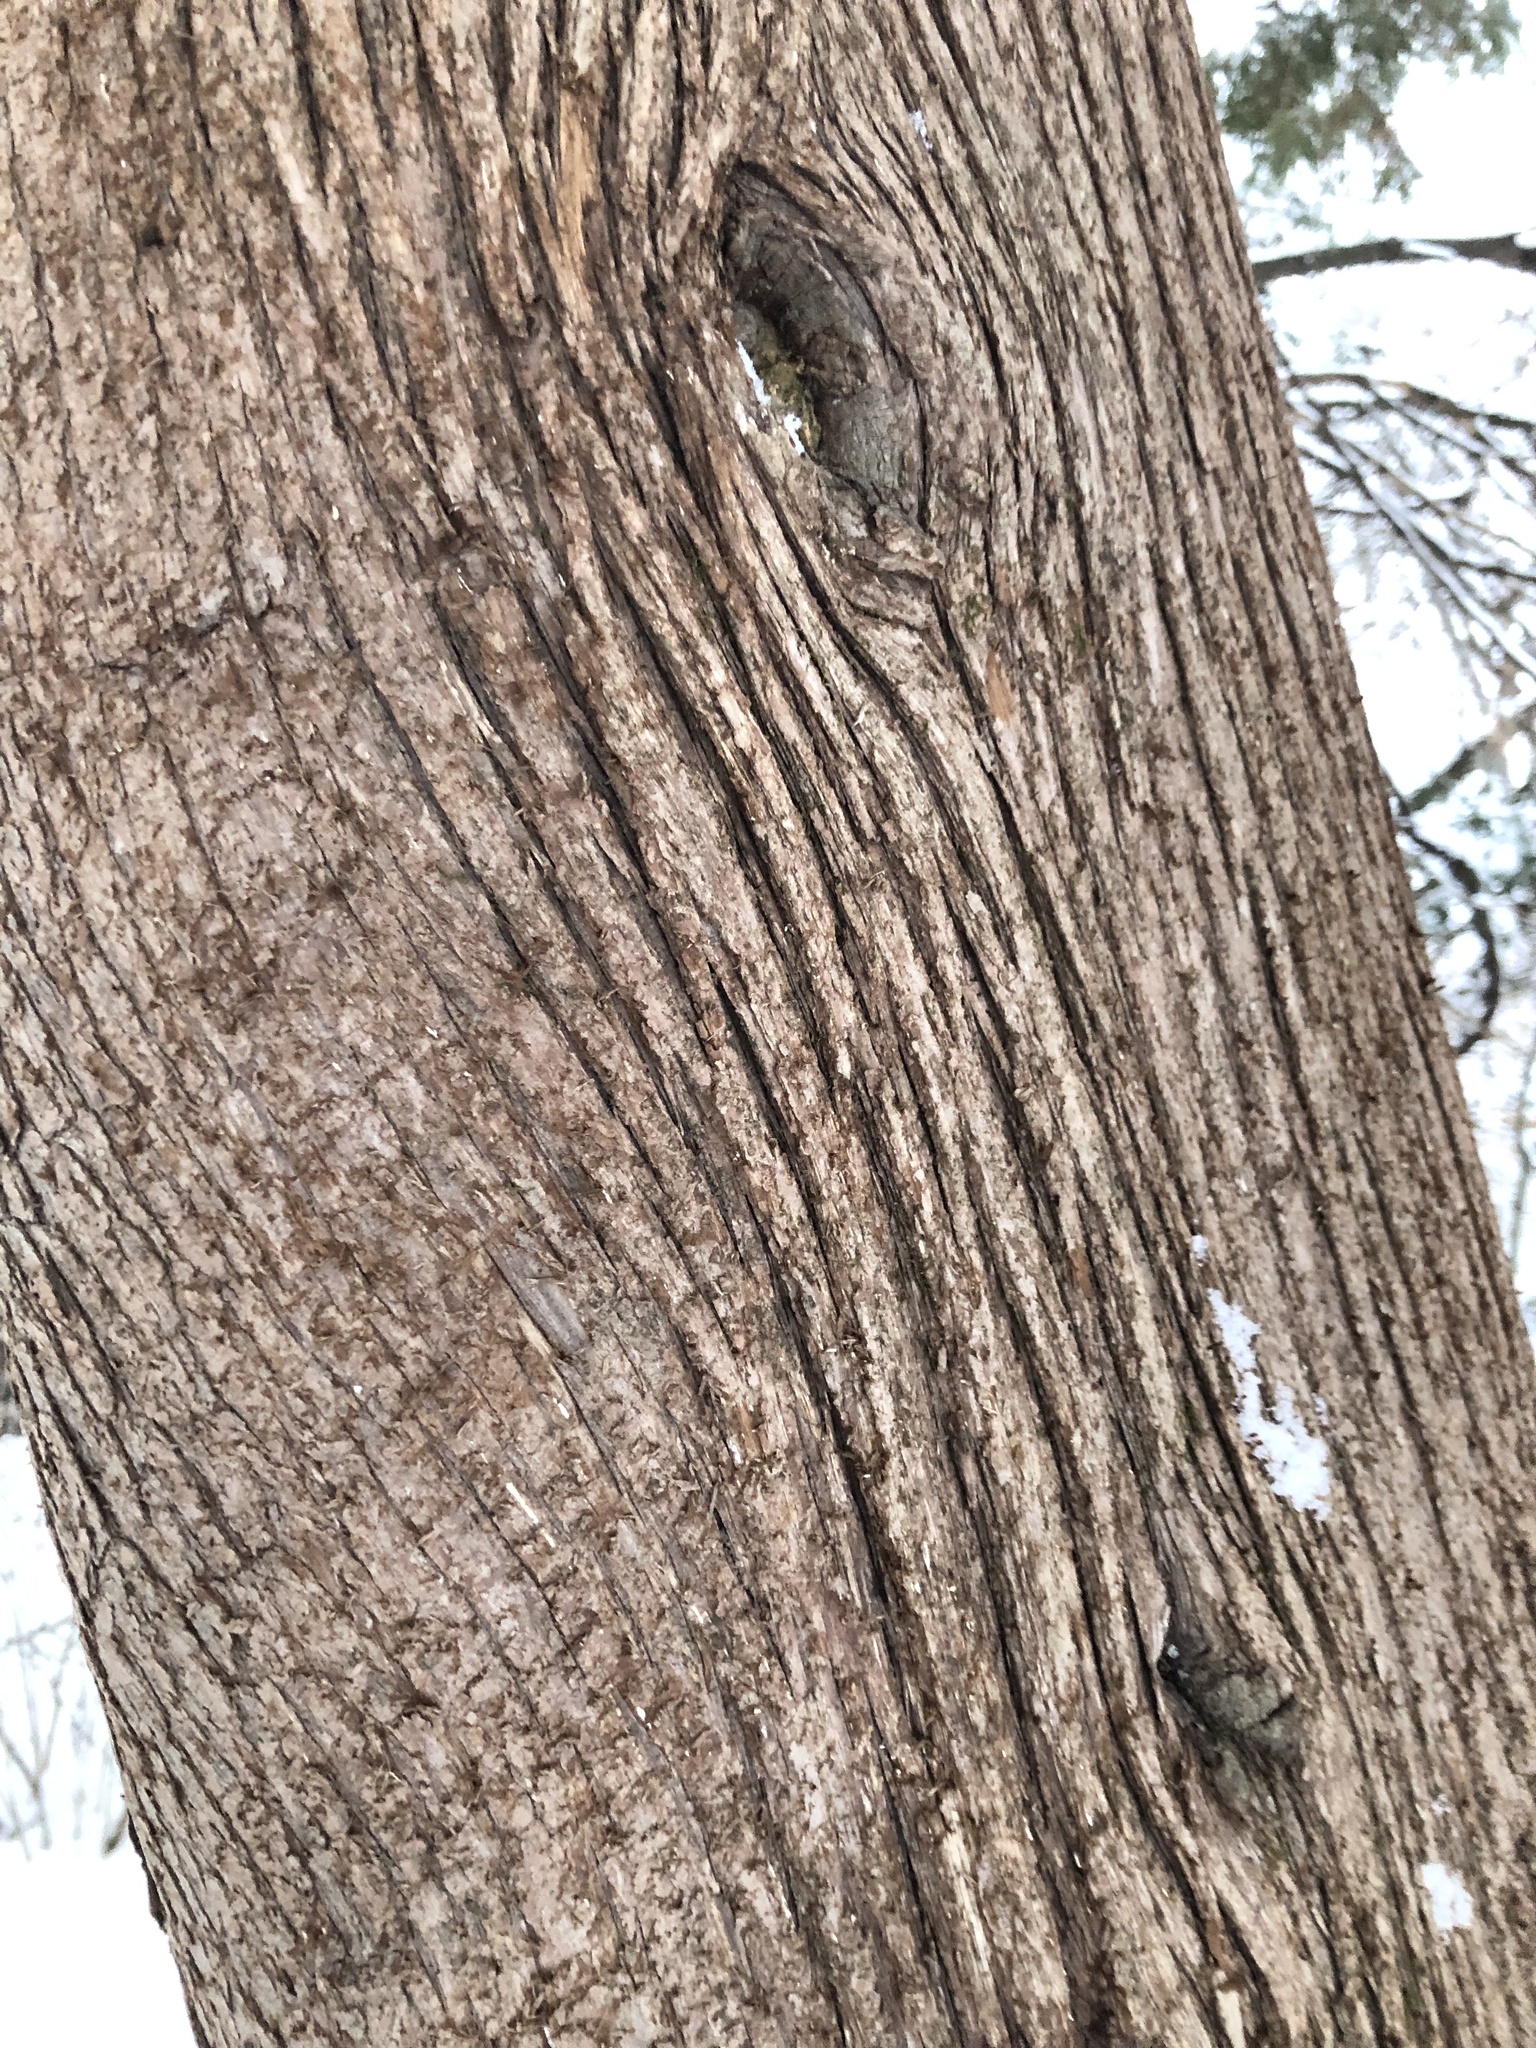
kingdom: Plantae
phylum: Tracheophyta
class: Pinopsida
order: Pinales
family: Cupressaceae
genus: Thuja
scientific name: Thuja occidentalis
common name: Northern white-cedar
